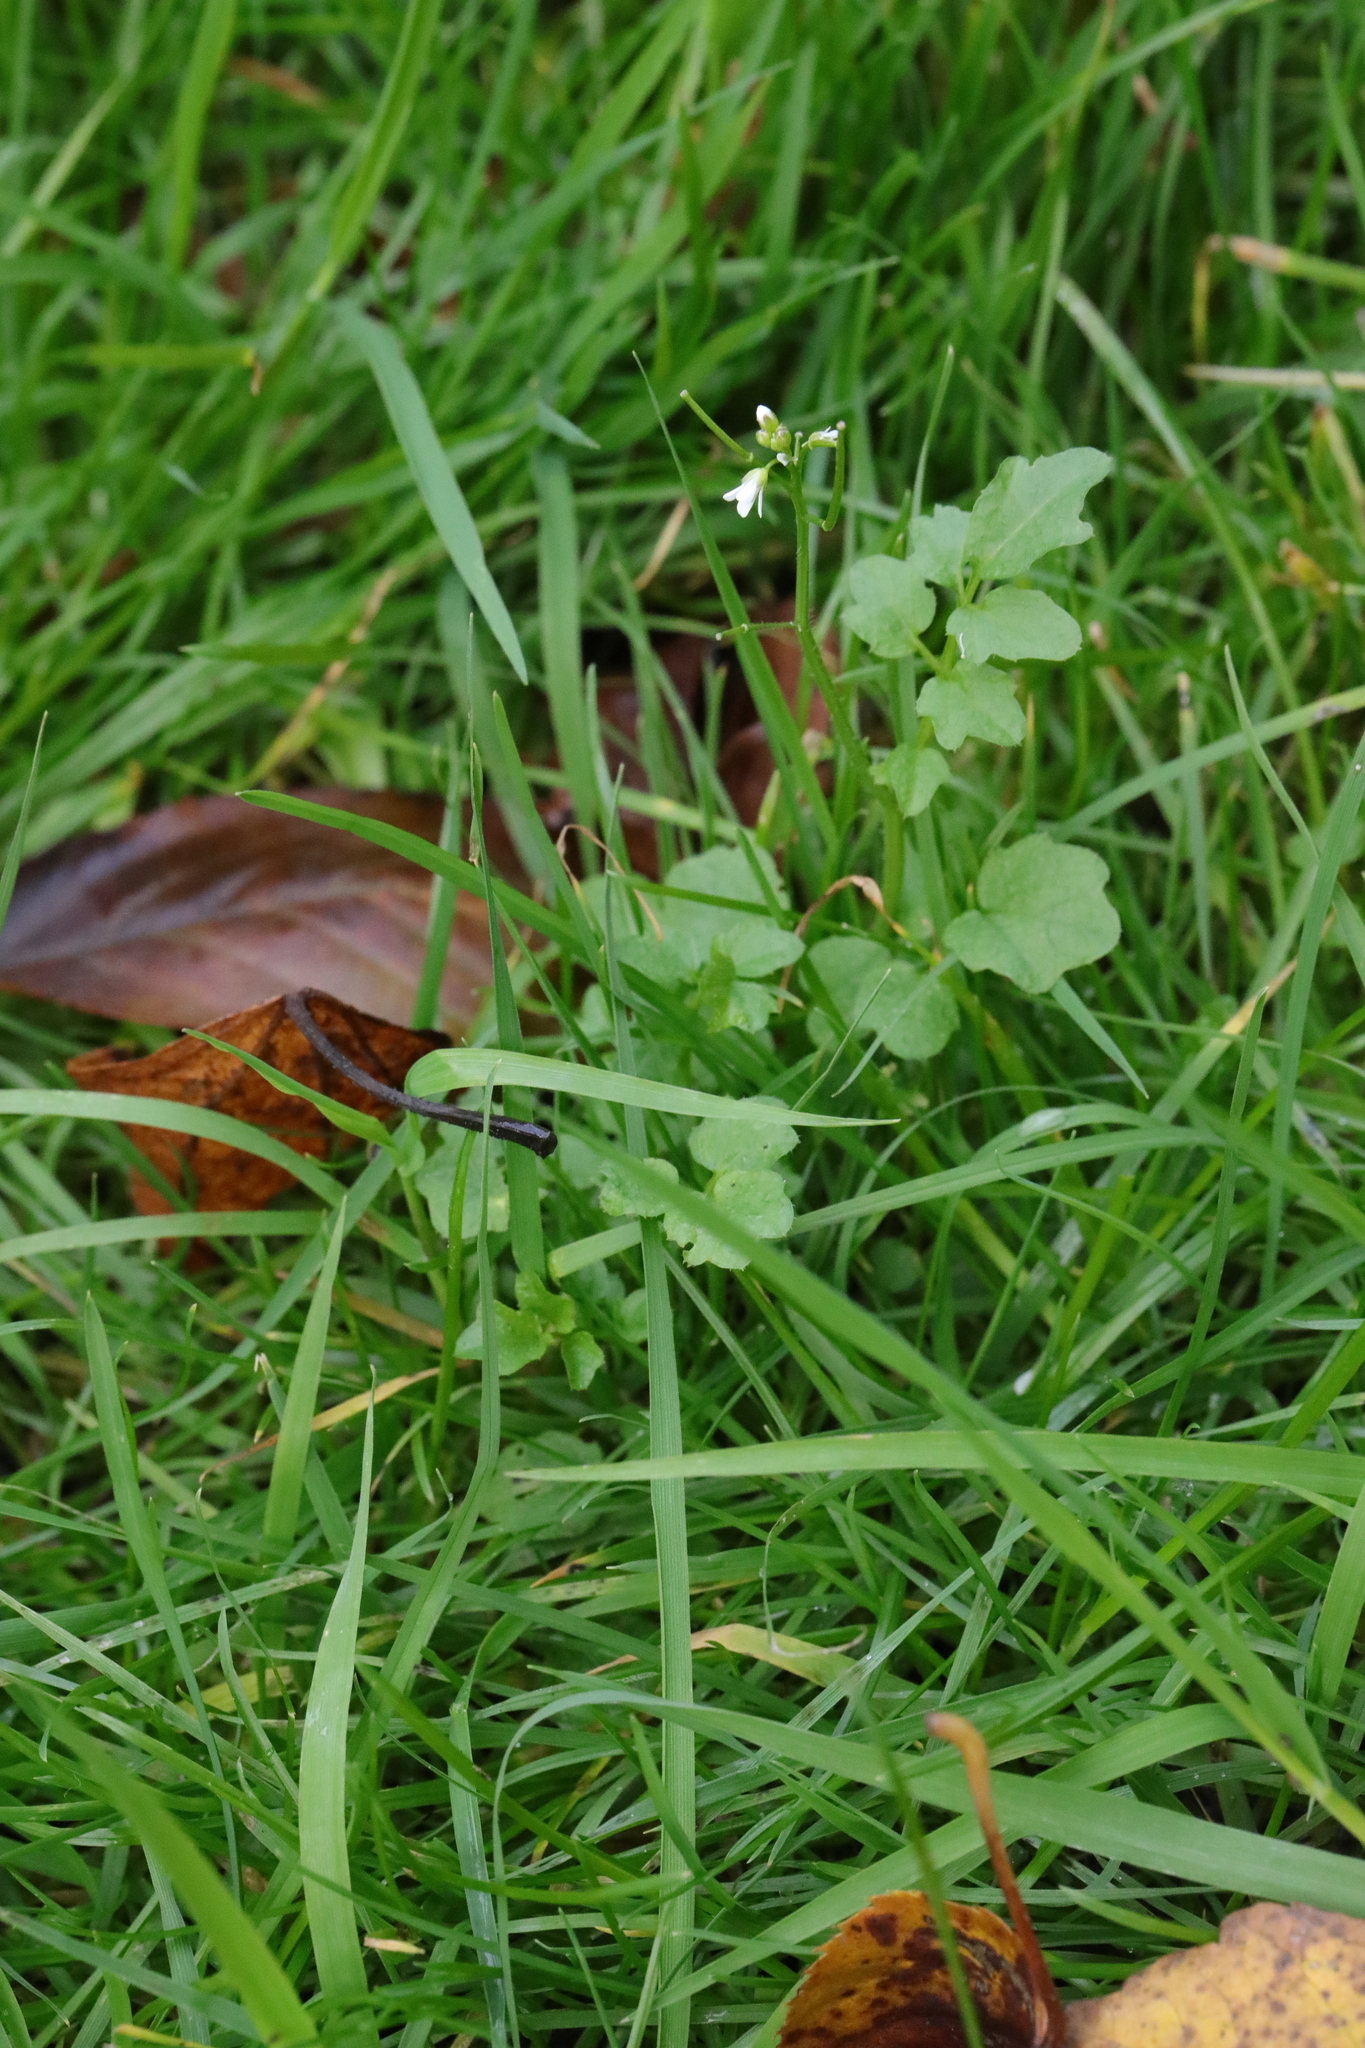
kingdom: Plantae
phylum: Tracheophyta
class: Magnoliopsida
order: Brassicales
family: Brassicaceae
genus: Cardamine
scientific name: Cardamine flexuosa
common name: Woodland bittercress
